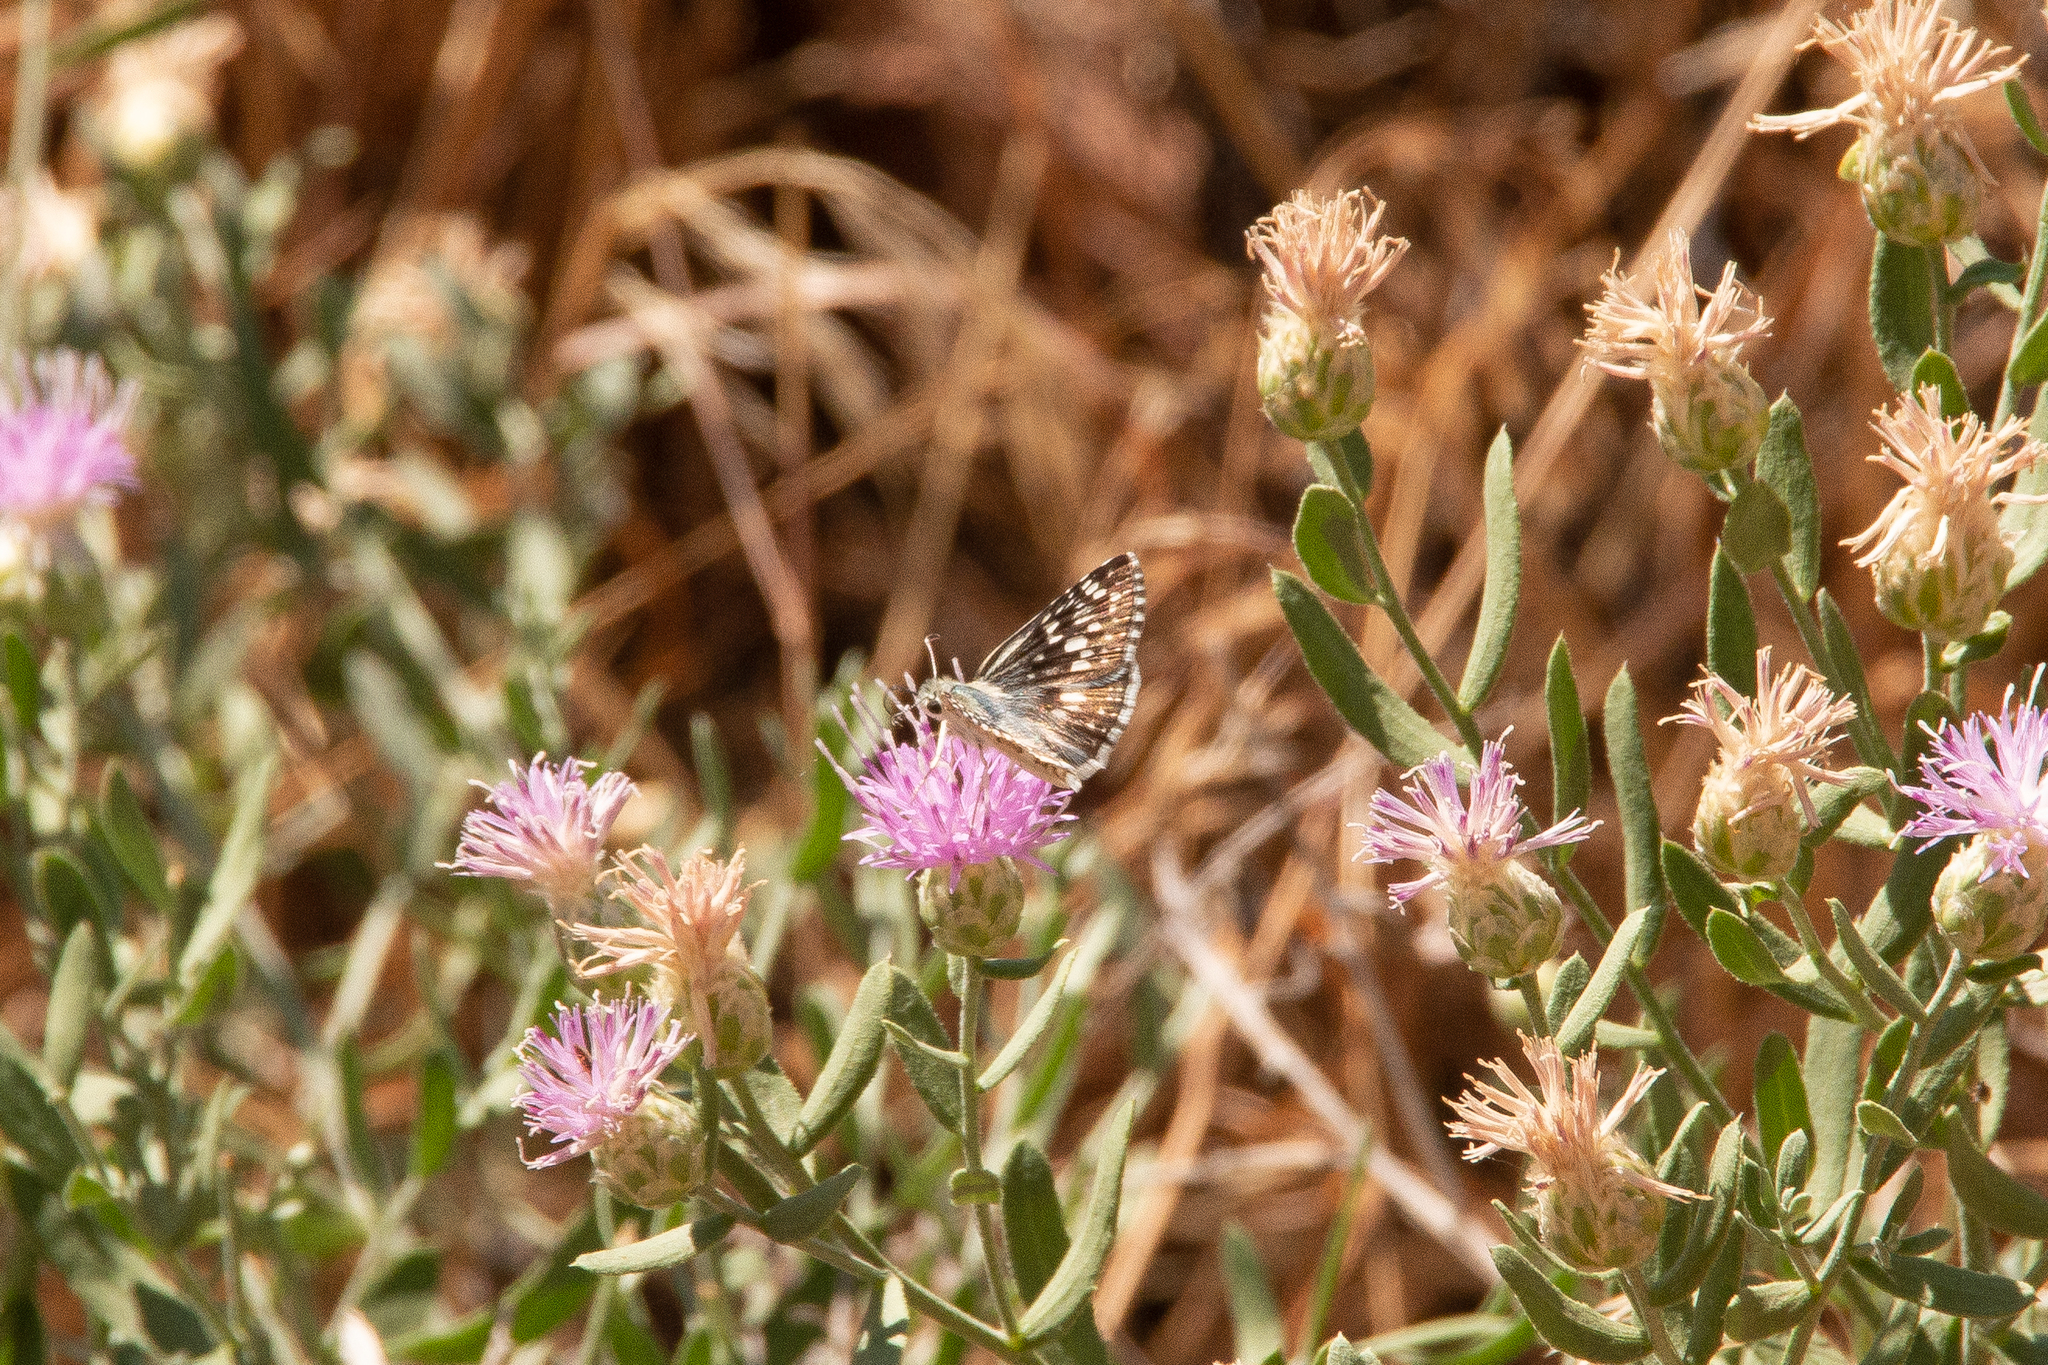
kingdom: Animalia
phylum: Arthropoda
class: Insecta
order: Lepidoptera
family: Hesperiidae
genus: Burnsius
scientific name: Burnsius communis
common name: Common checkered-skipper
